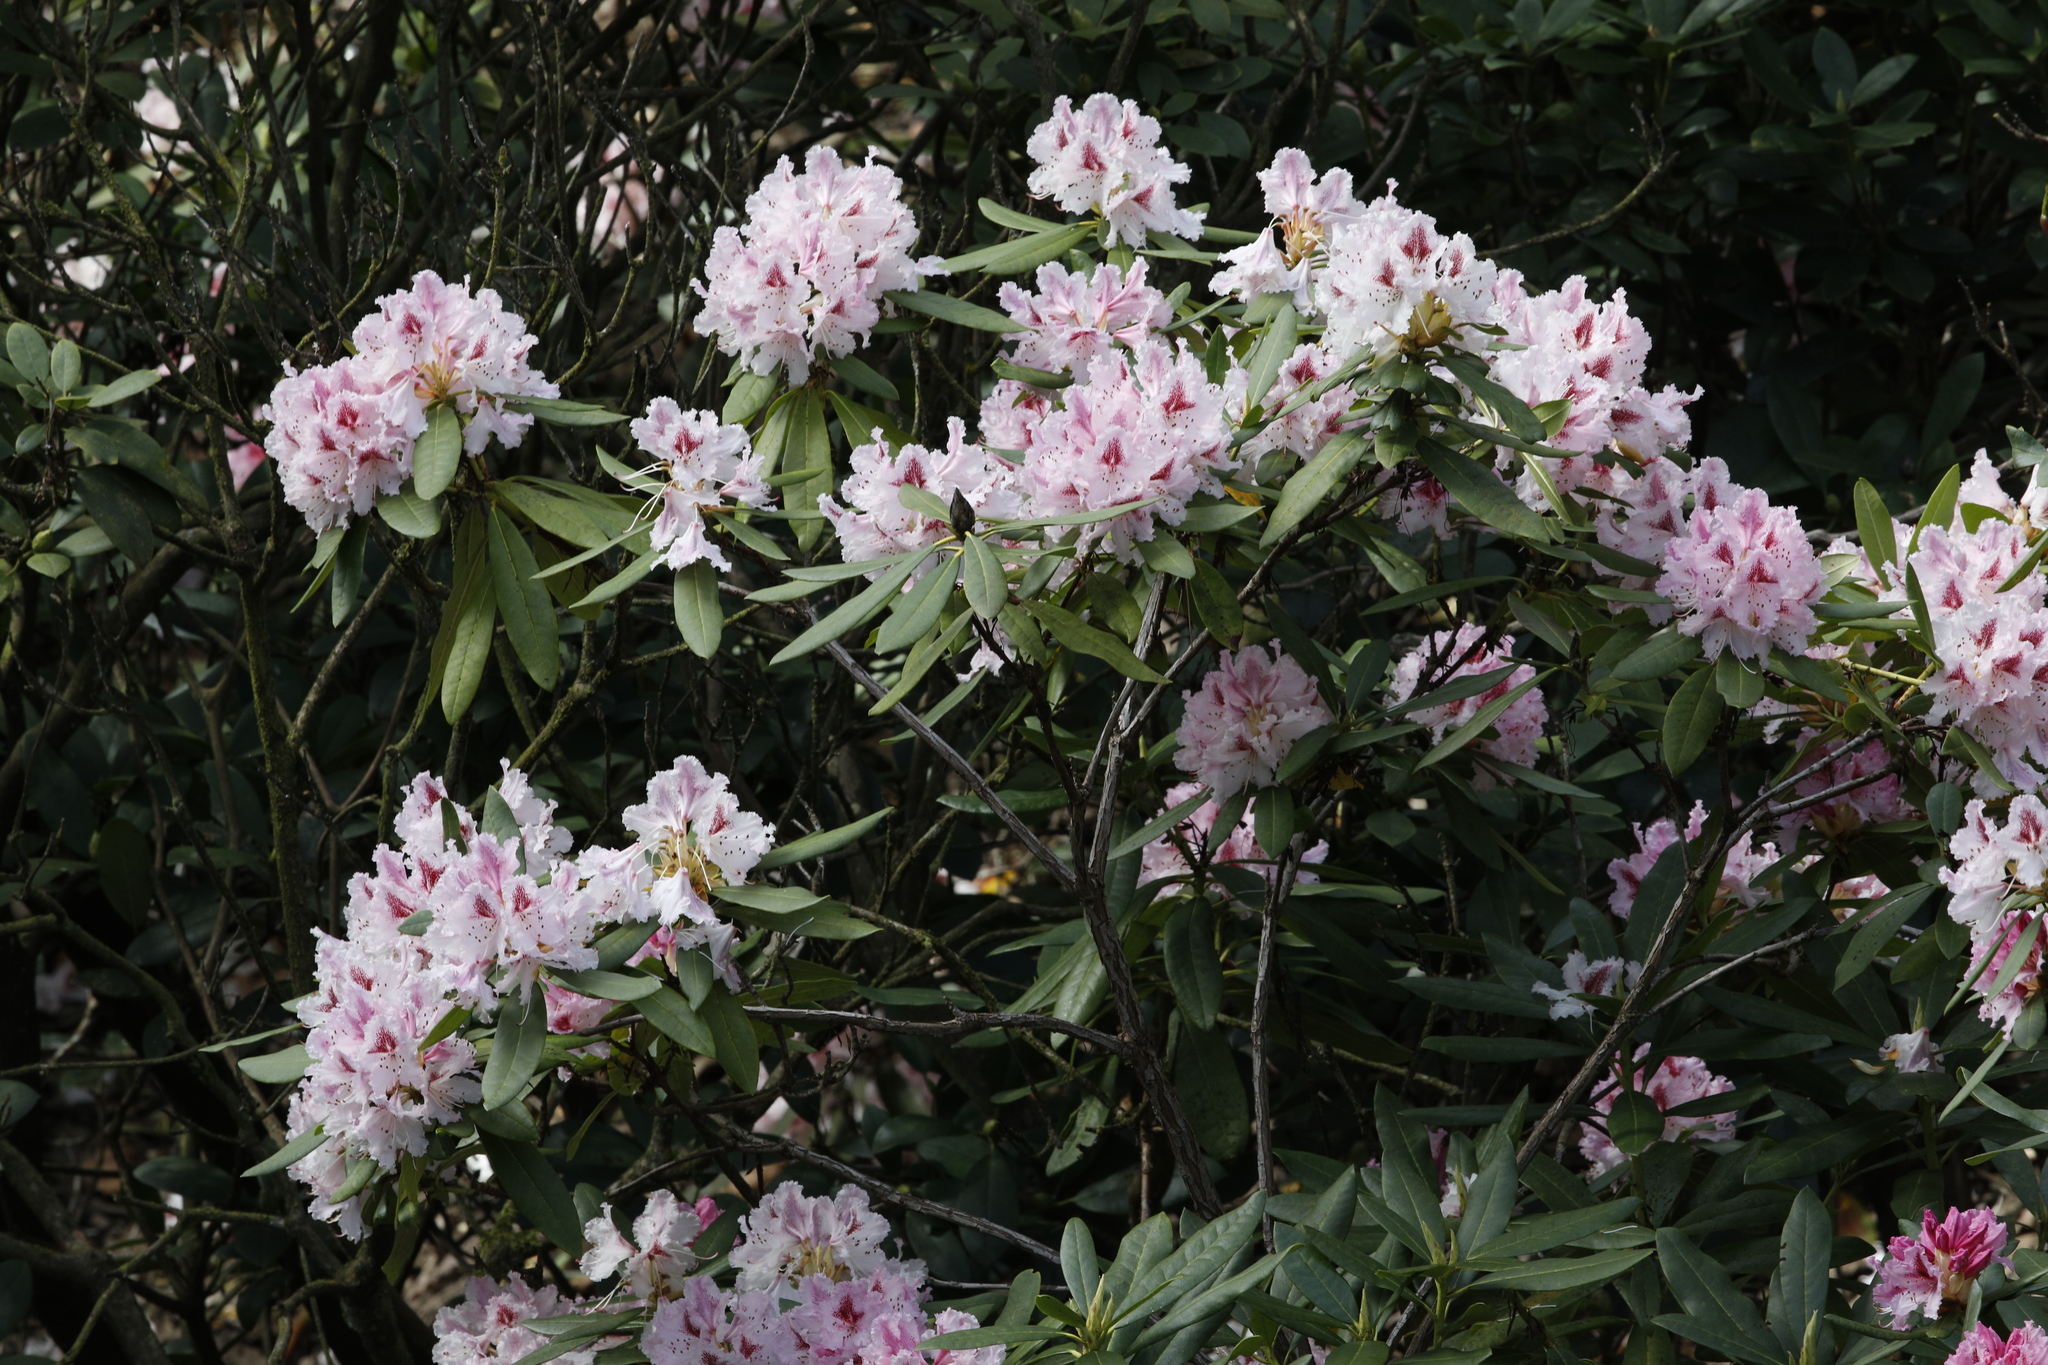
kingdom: Plantae
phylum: Tracheophyta
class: Magnoliopsida
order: Ericales
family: Ericaceae
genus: Rhododendron
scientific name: Rhododendron
